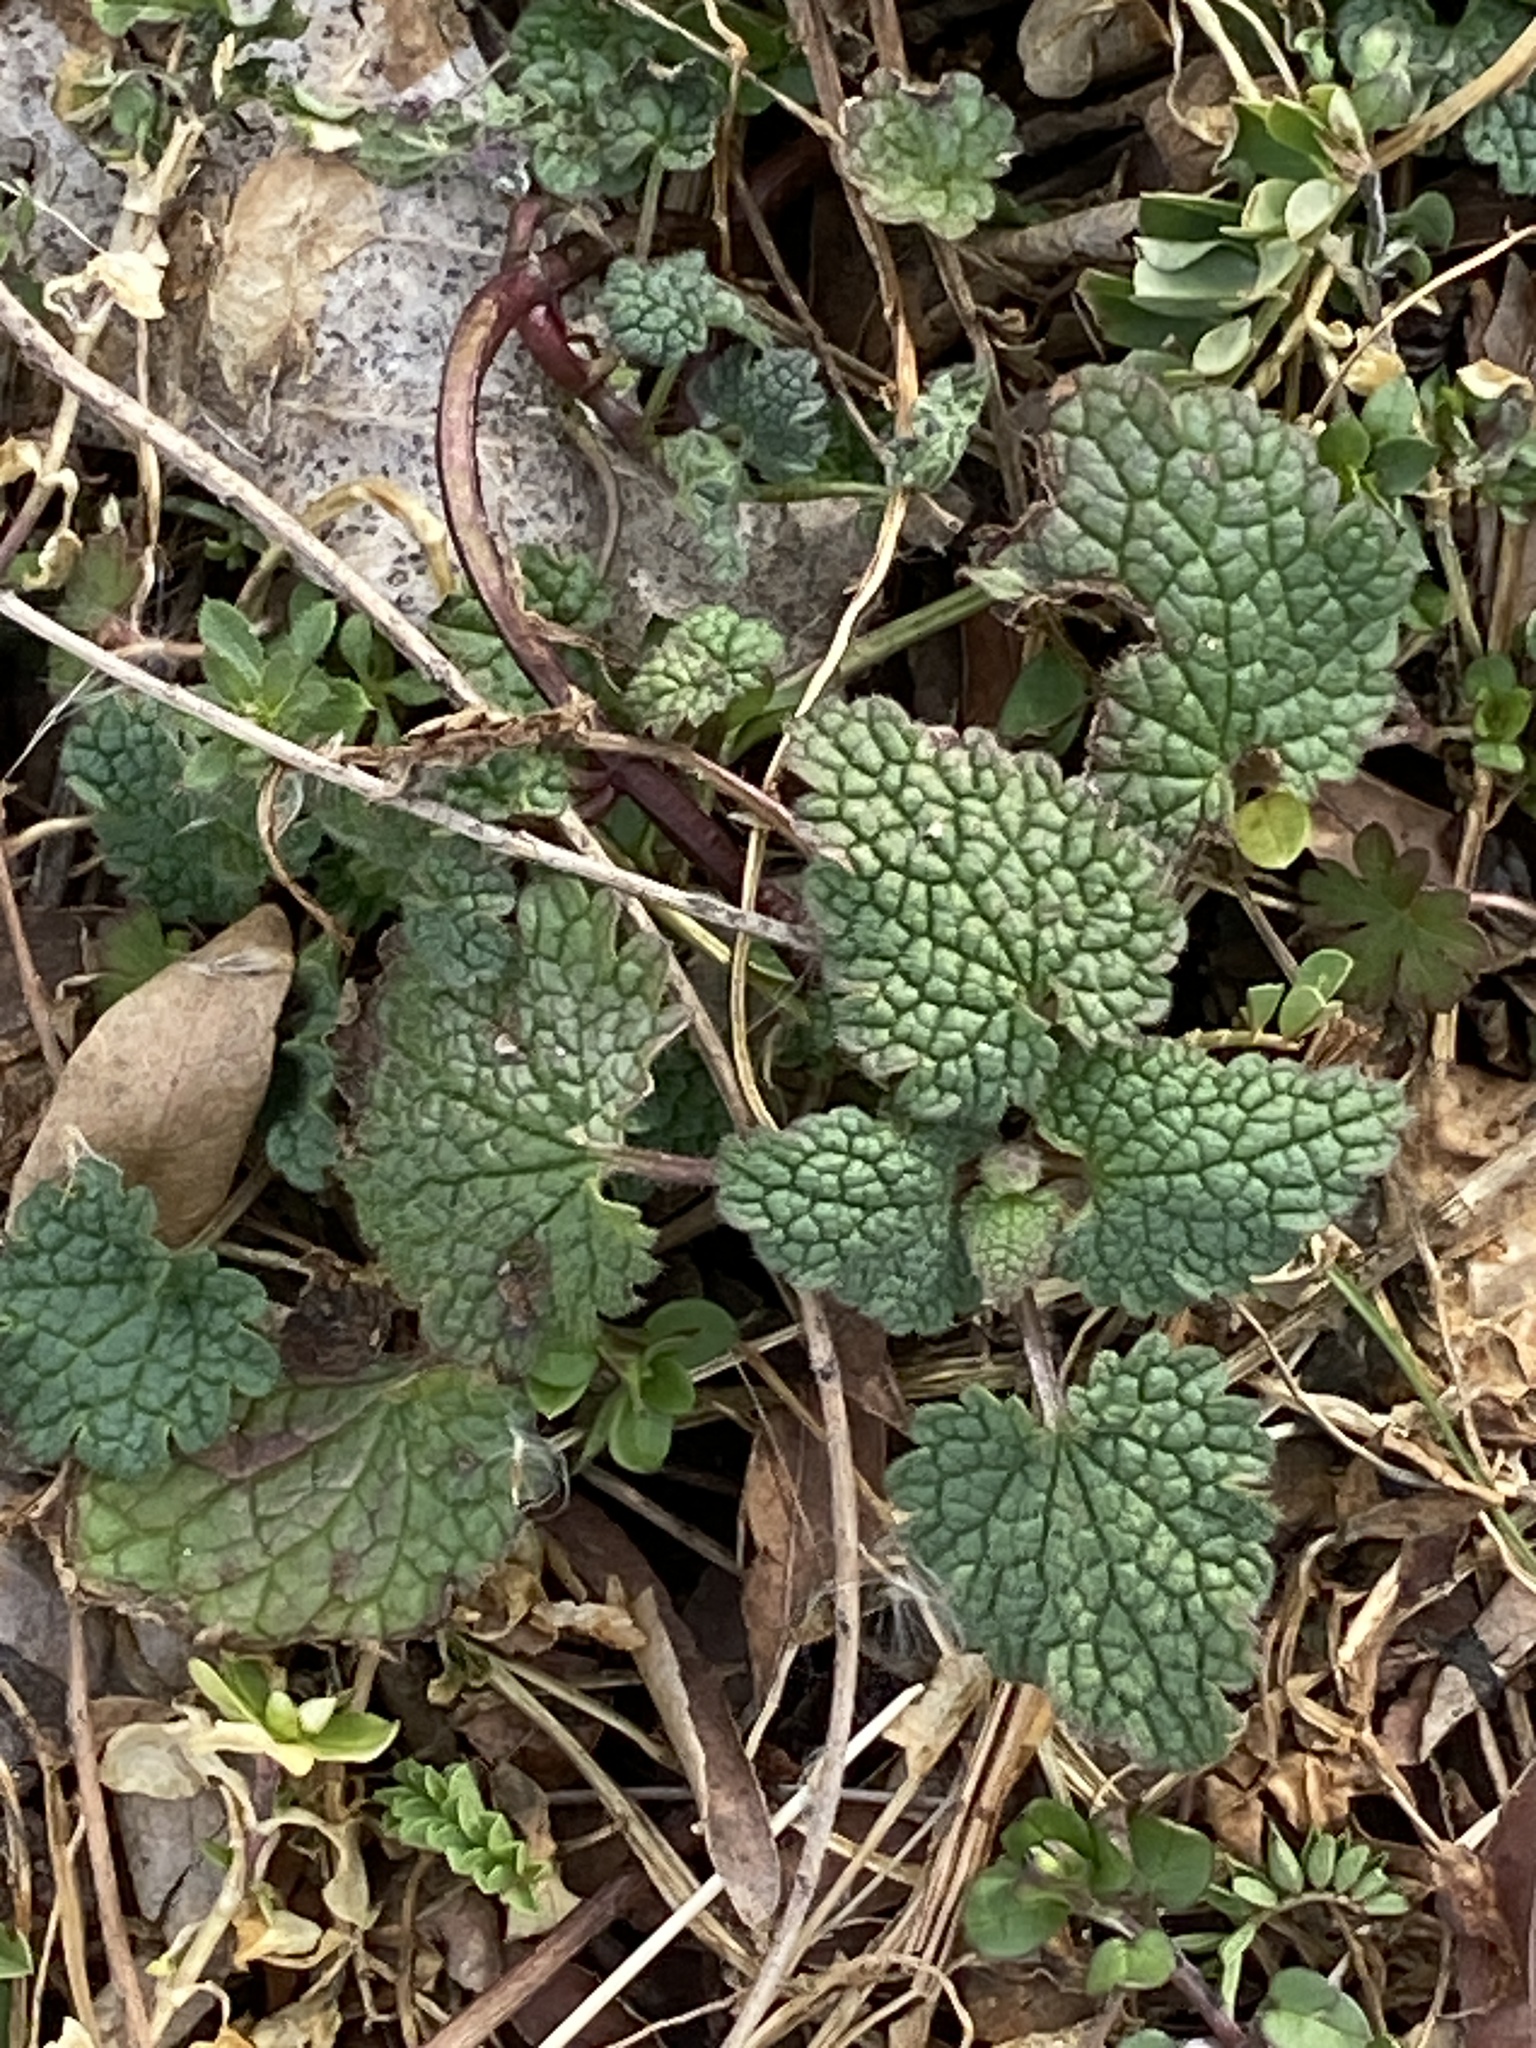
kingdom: Plantae
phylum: Tracheophyta
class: Magnoliopsida
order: Lamiales
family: Lamiaceae
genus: Lamium
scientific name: Lamium purpureum
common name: Red dead-nettle
